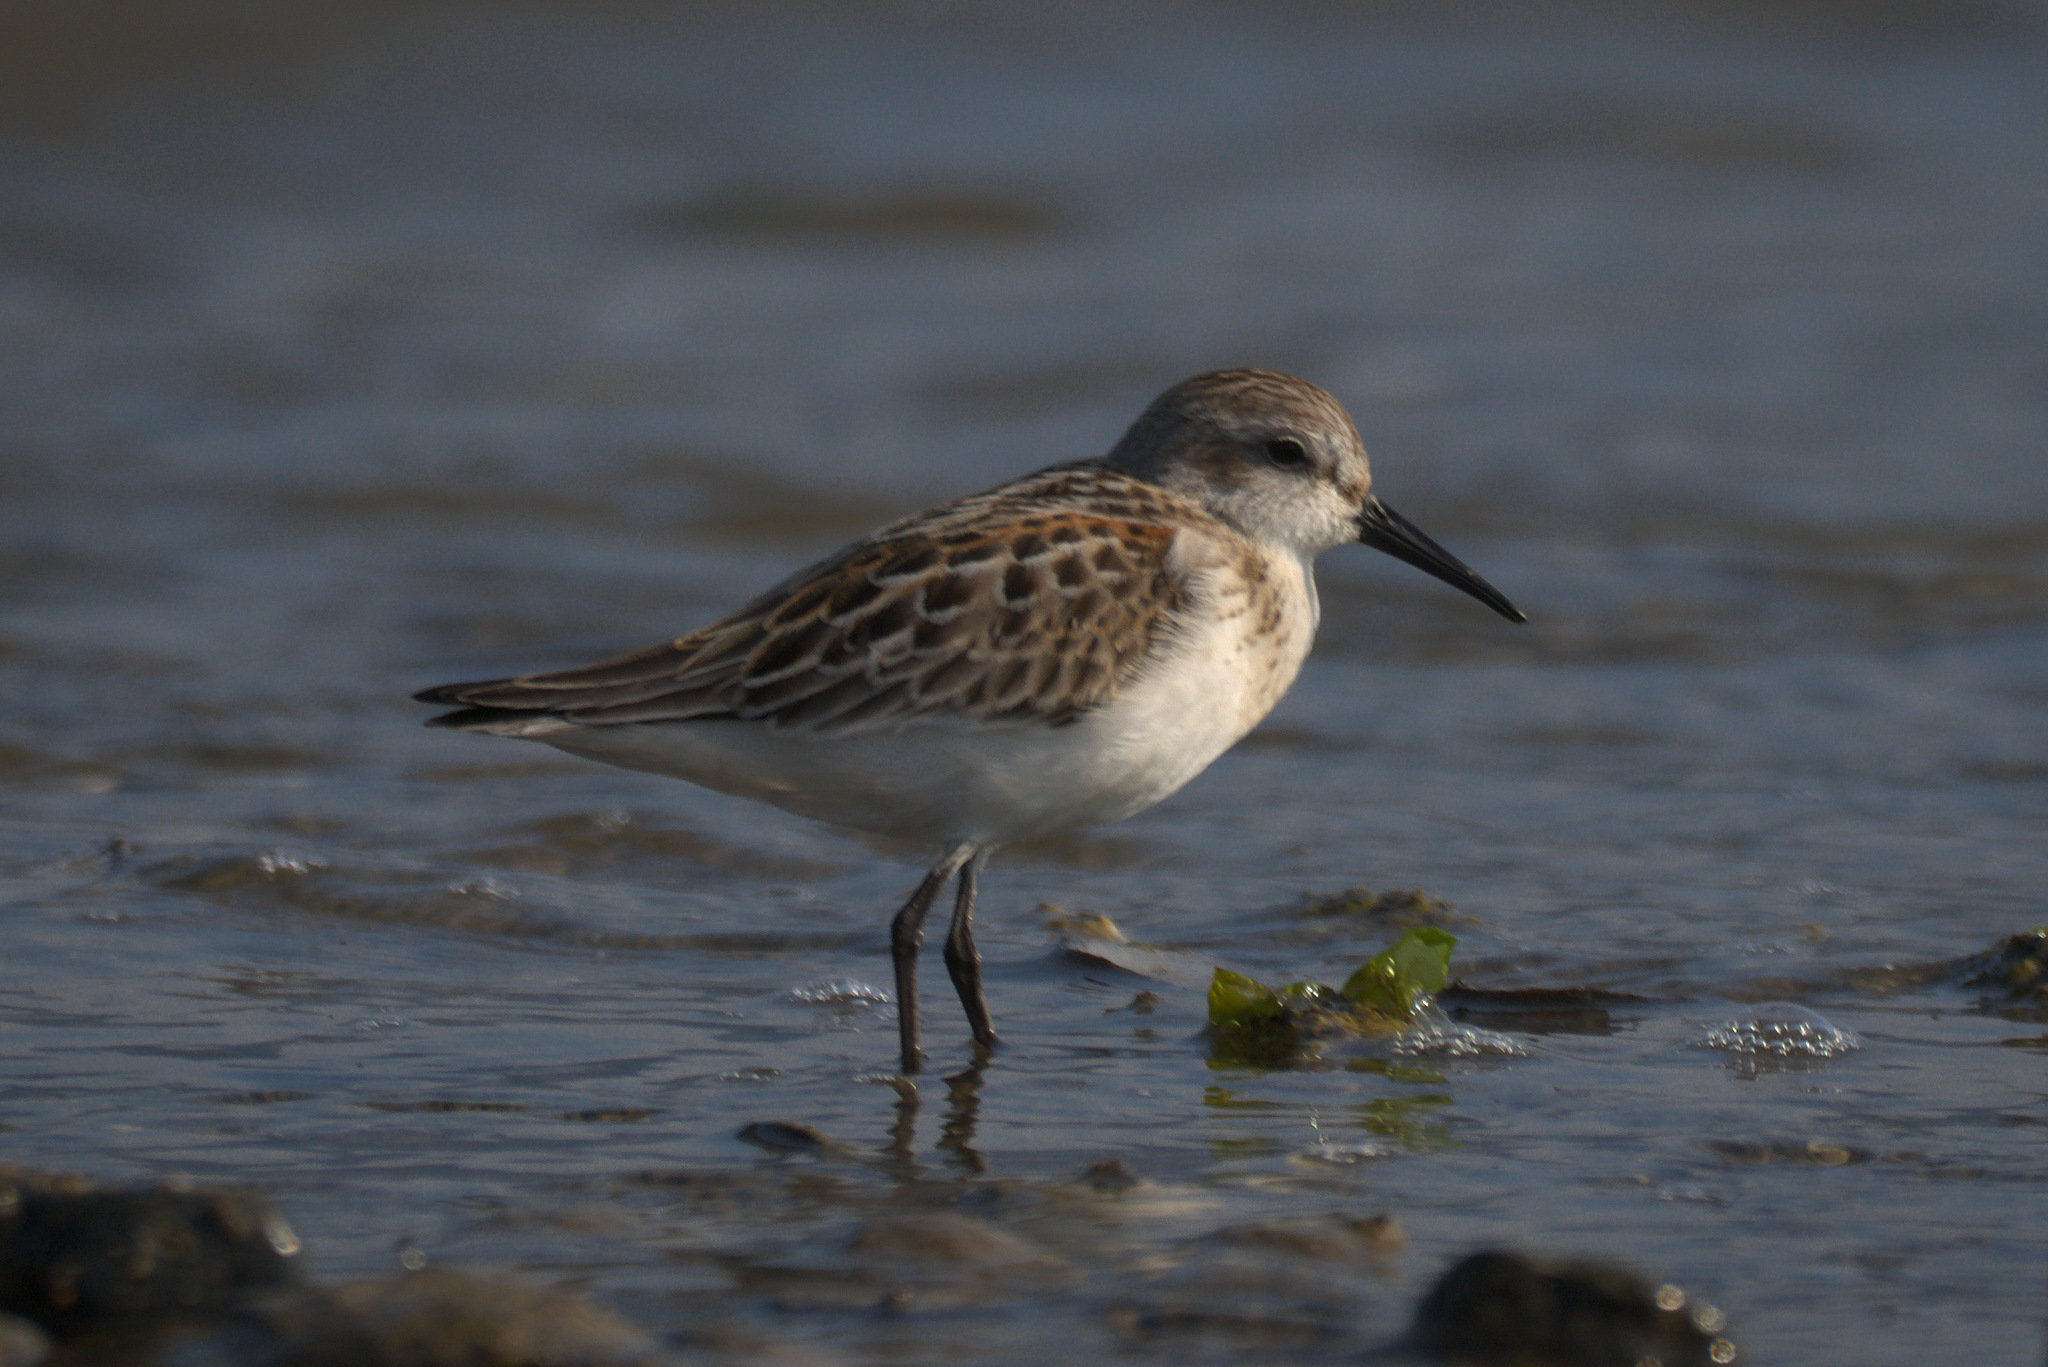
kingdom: Animalia
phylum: Chordata
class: Aves
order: Charadriiformes
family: Scolopacidae
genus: Calidris
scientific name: Calidris mauri
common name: Western sandpiper
